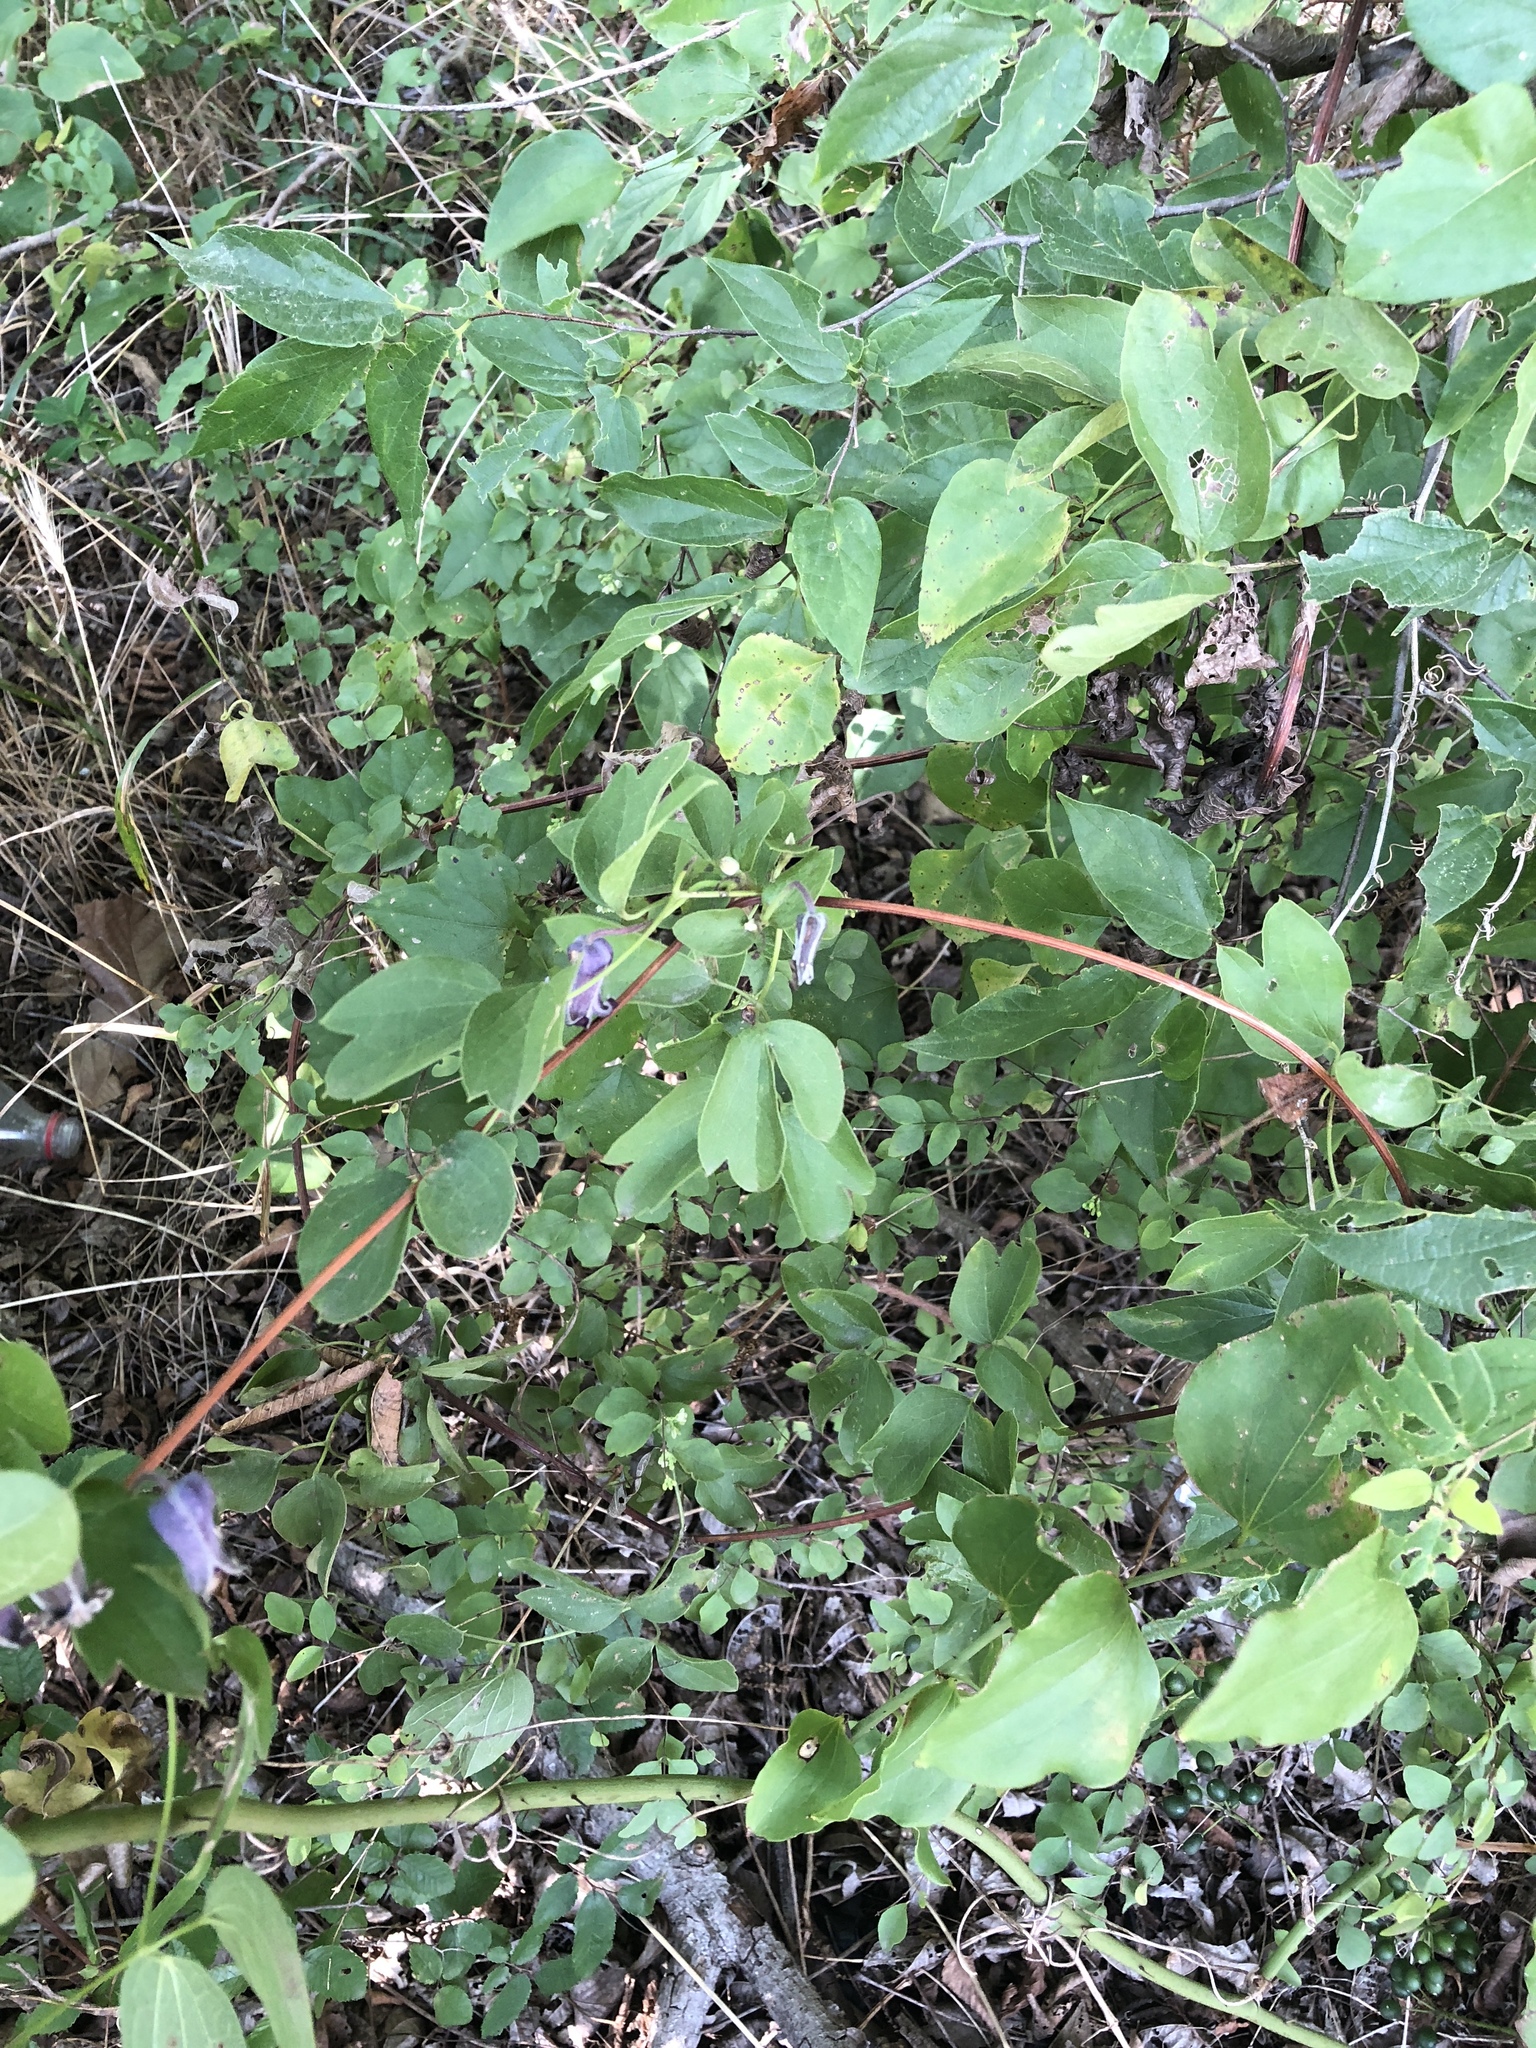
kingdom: Plantae
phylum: Tracheophyta
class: Magnoliopsida
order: Ranunculales
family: Ranunculaceae
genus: Clematis
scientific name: Clematis pitcheri
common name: Bellflower clematis
